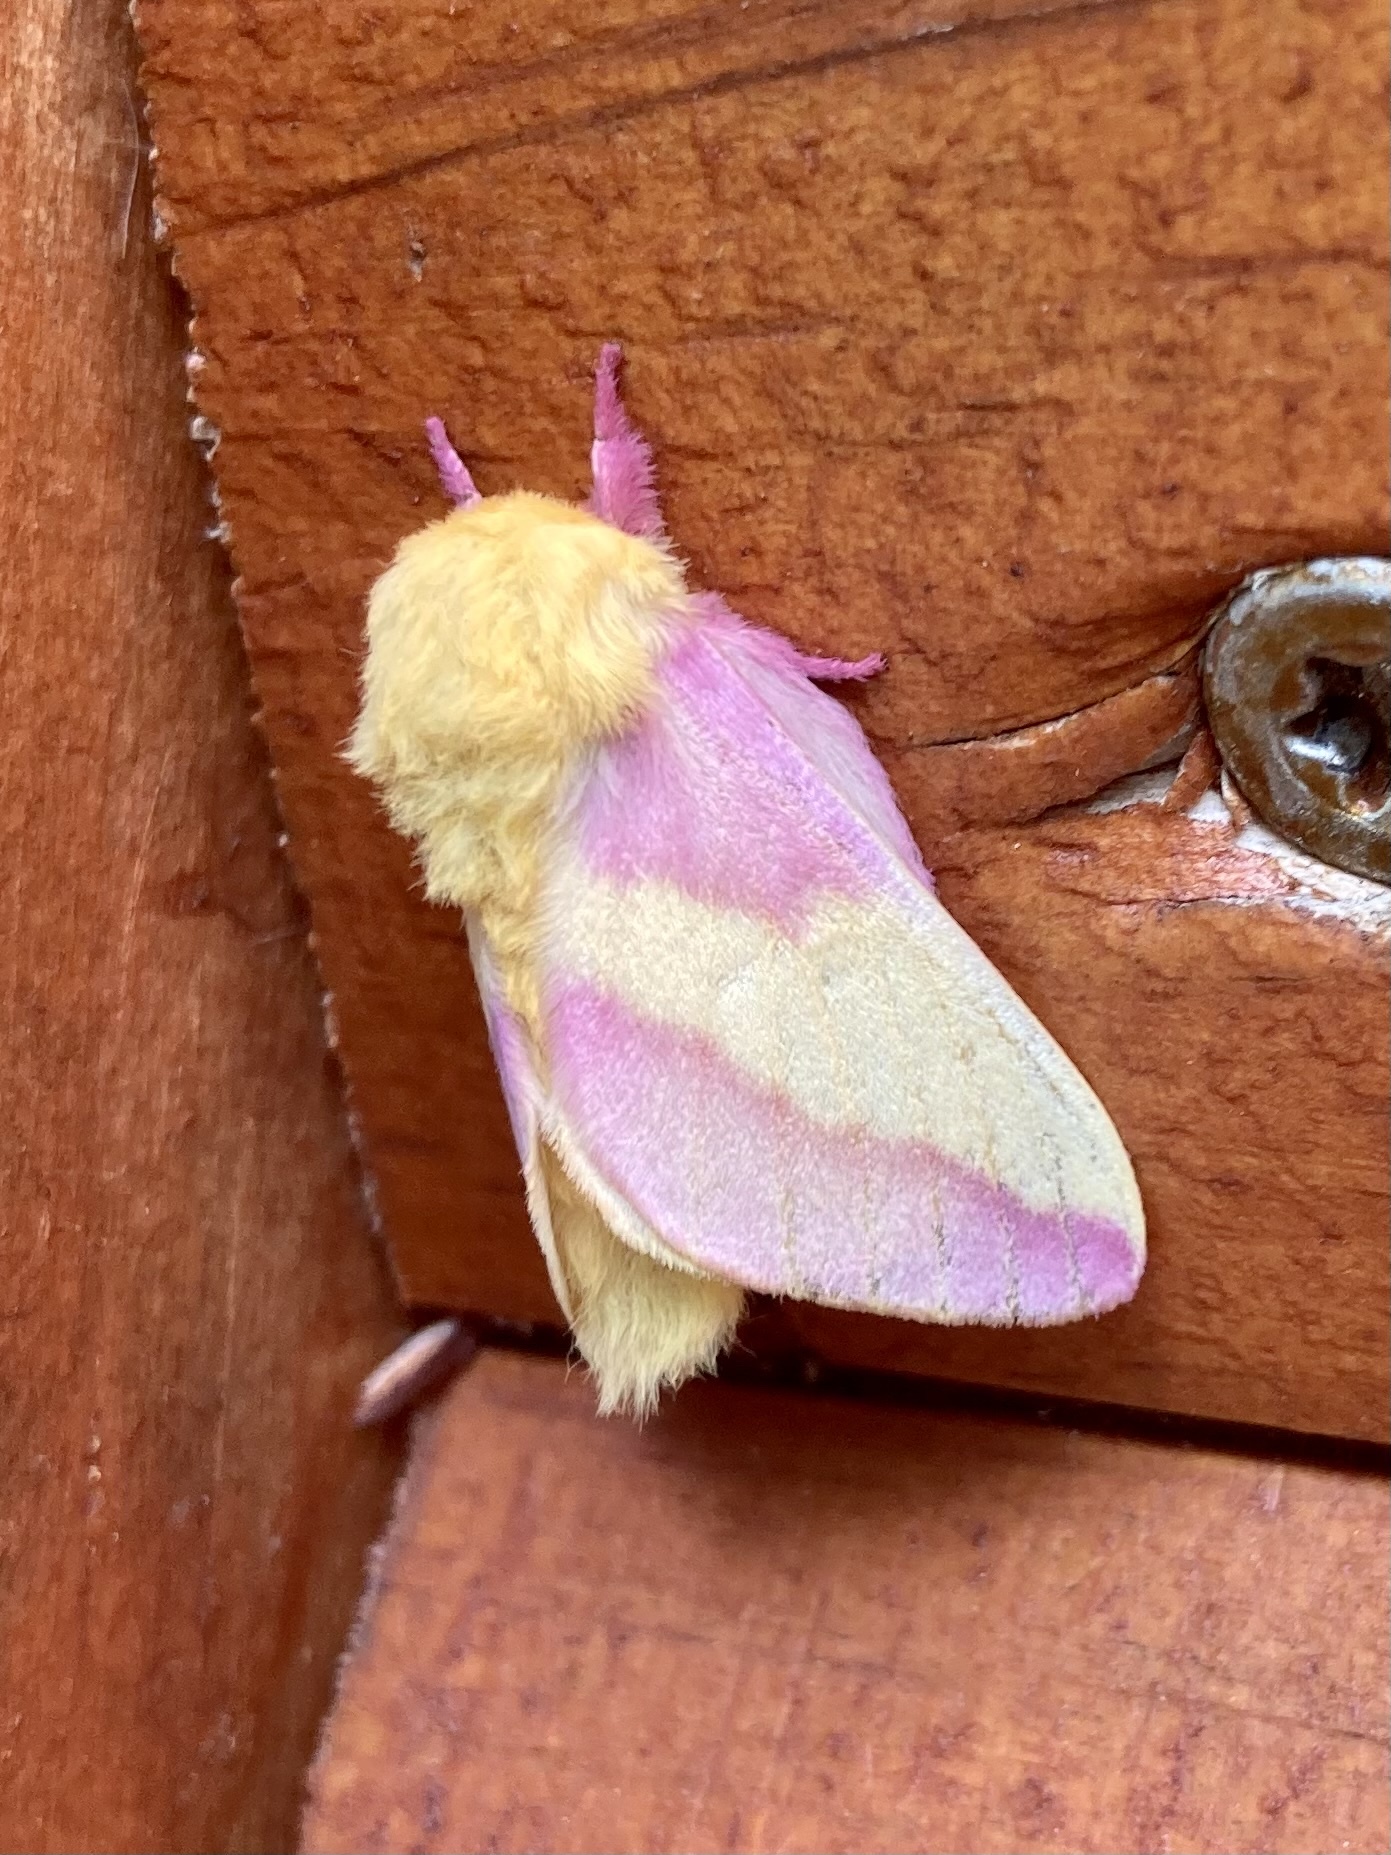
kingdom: Animalia
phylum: Arthropoda
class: Insecta
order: Lepidoptera
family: Saturniidae
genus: Dryocampa
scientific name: Dryocampa rubicunda
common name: Rosy maple moth
